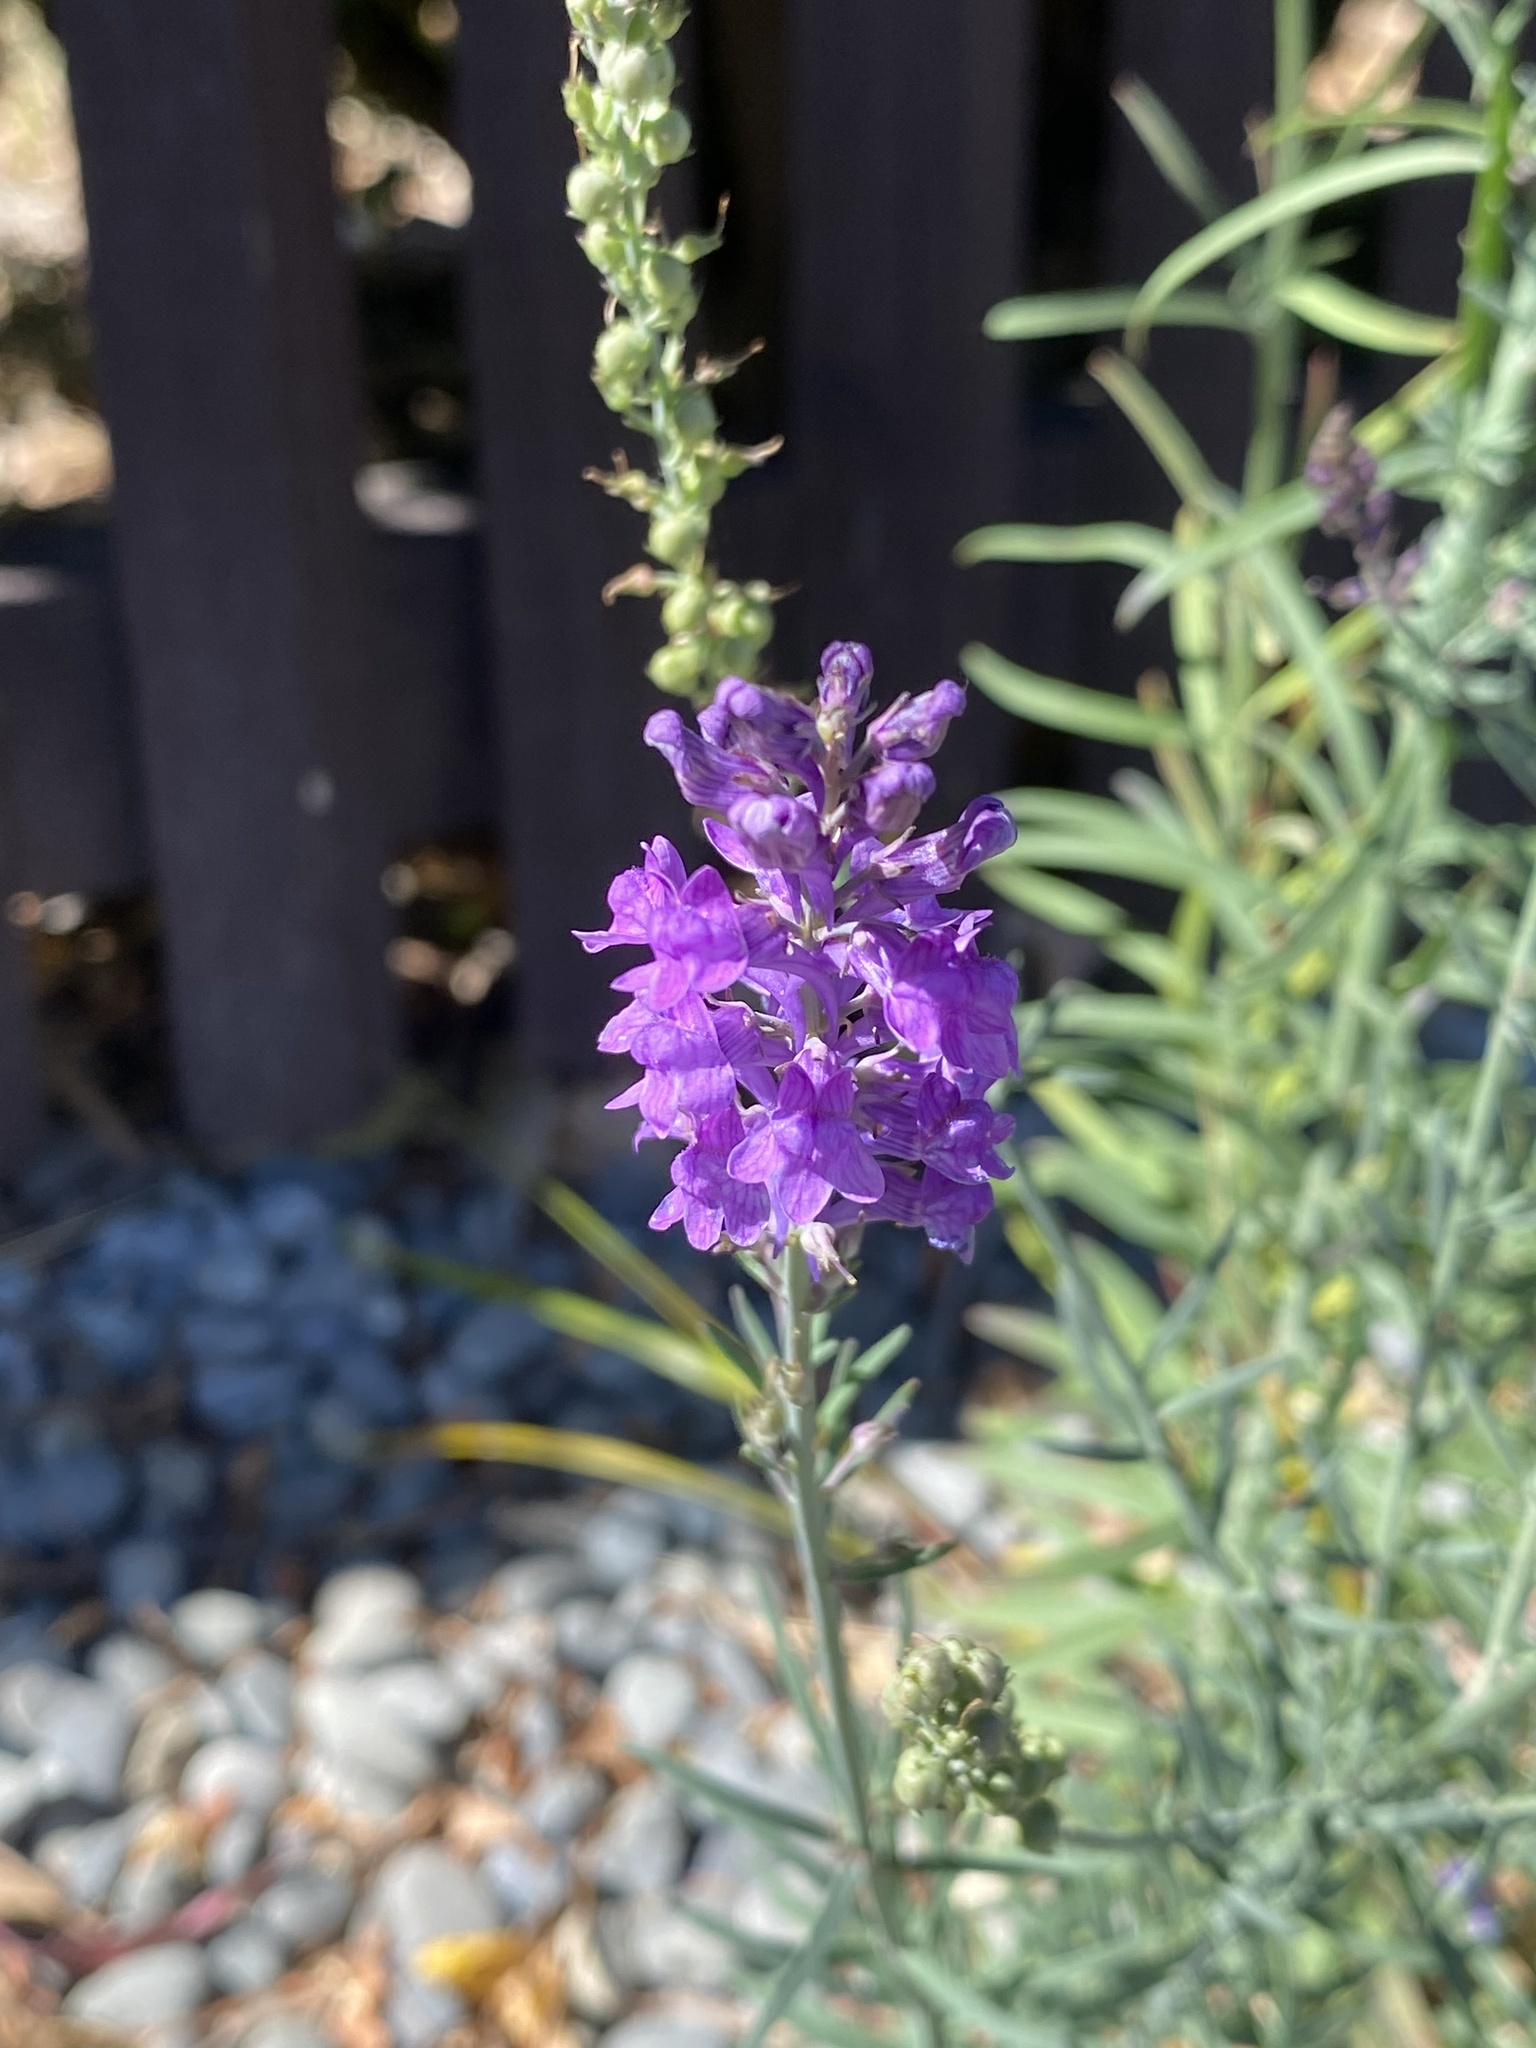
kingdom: Plantae
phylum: Tracheophyta
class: Magnoliopsida
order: Lamiales
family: Plantaginaceae
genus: Linaria
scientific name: Linaria purpurea
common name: Purple toadflax
